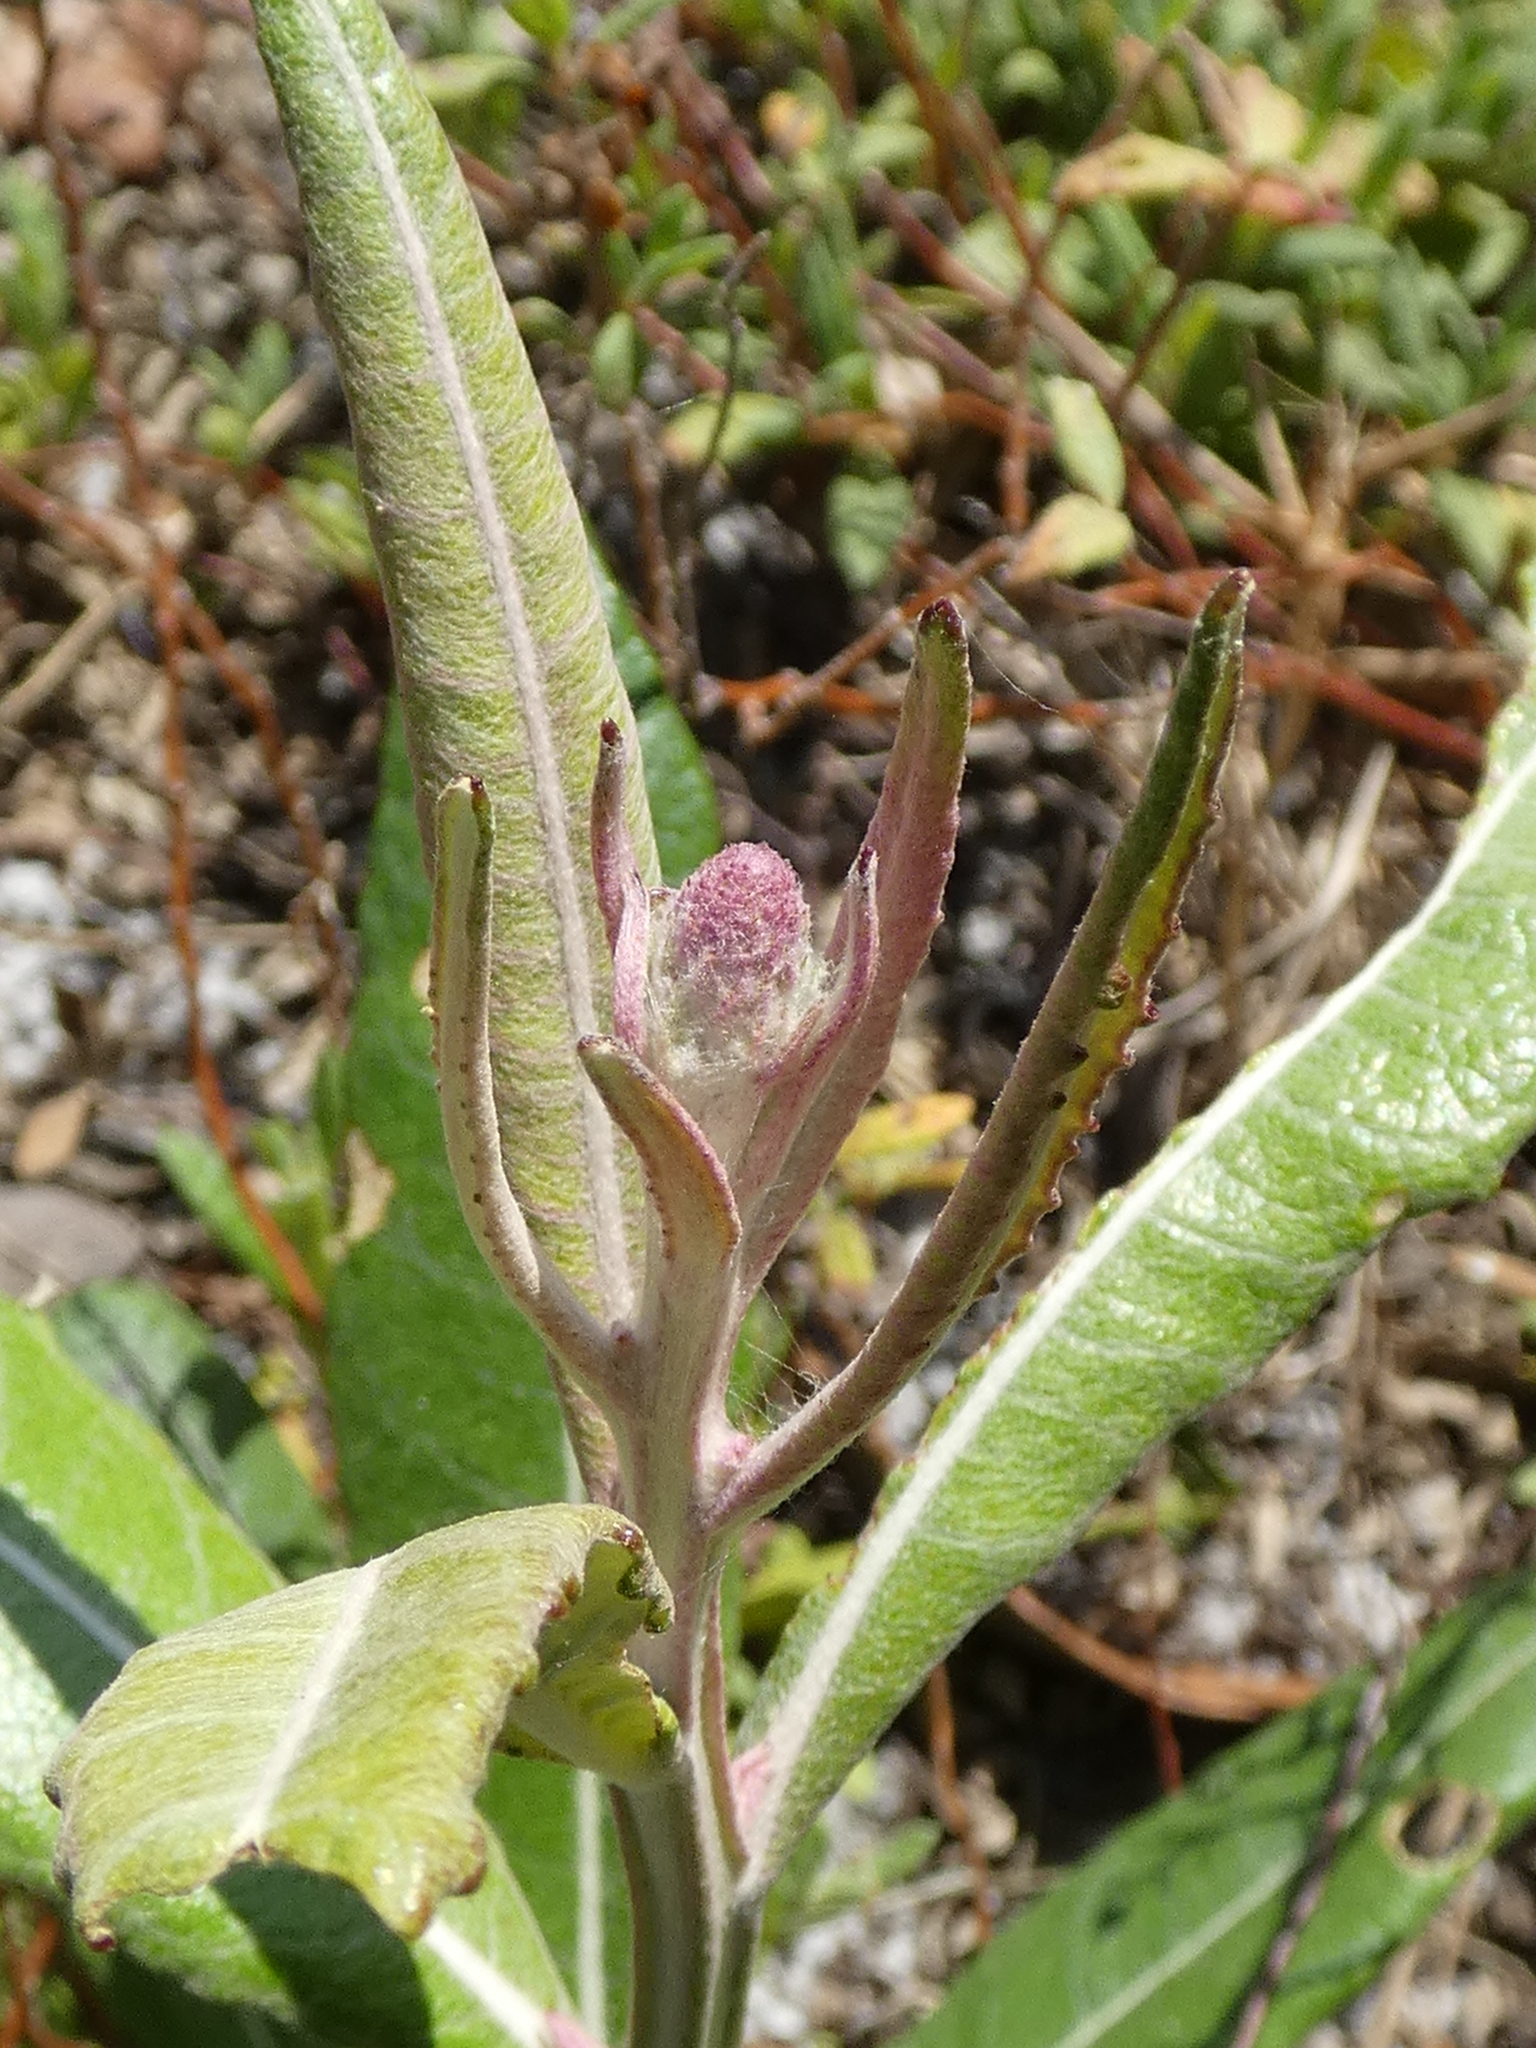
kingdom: Plantae
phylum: Tracheophyta
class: Magnoliopsida
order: Asterales
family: Asteraceae
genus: Pterocaulon
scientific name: Pterocaulon pycnostachyum
